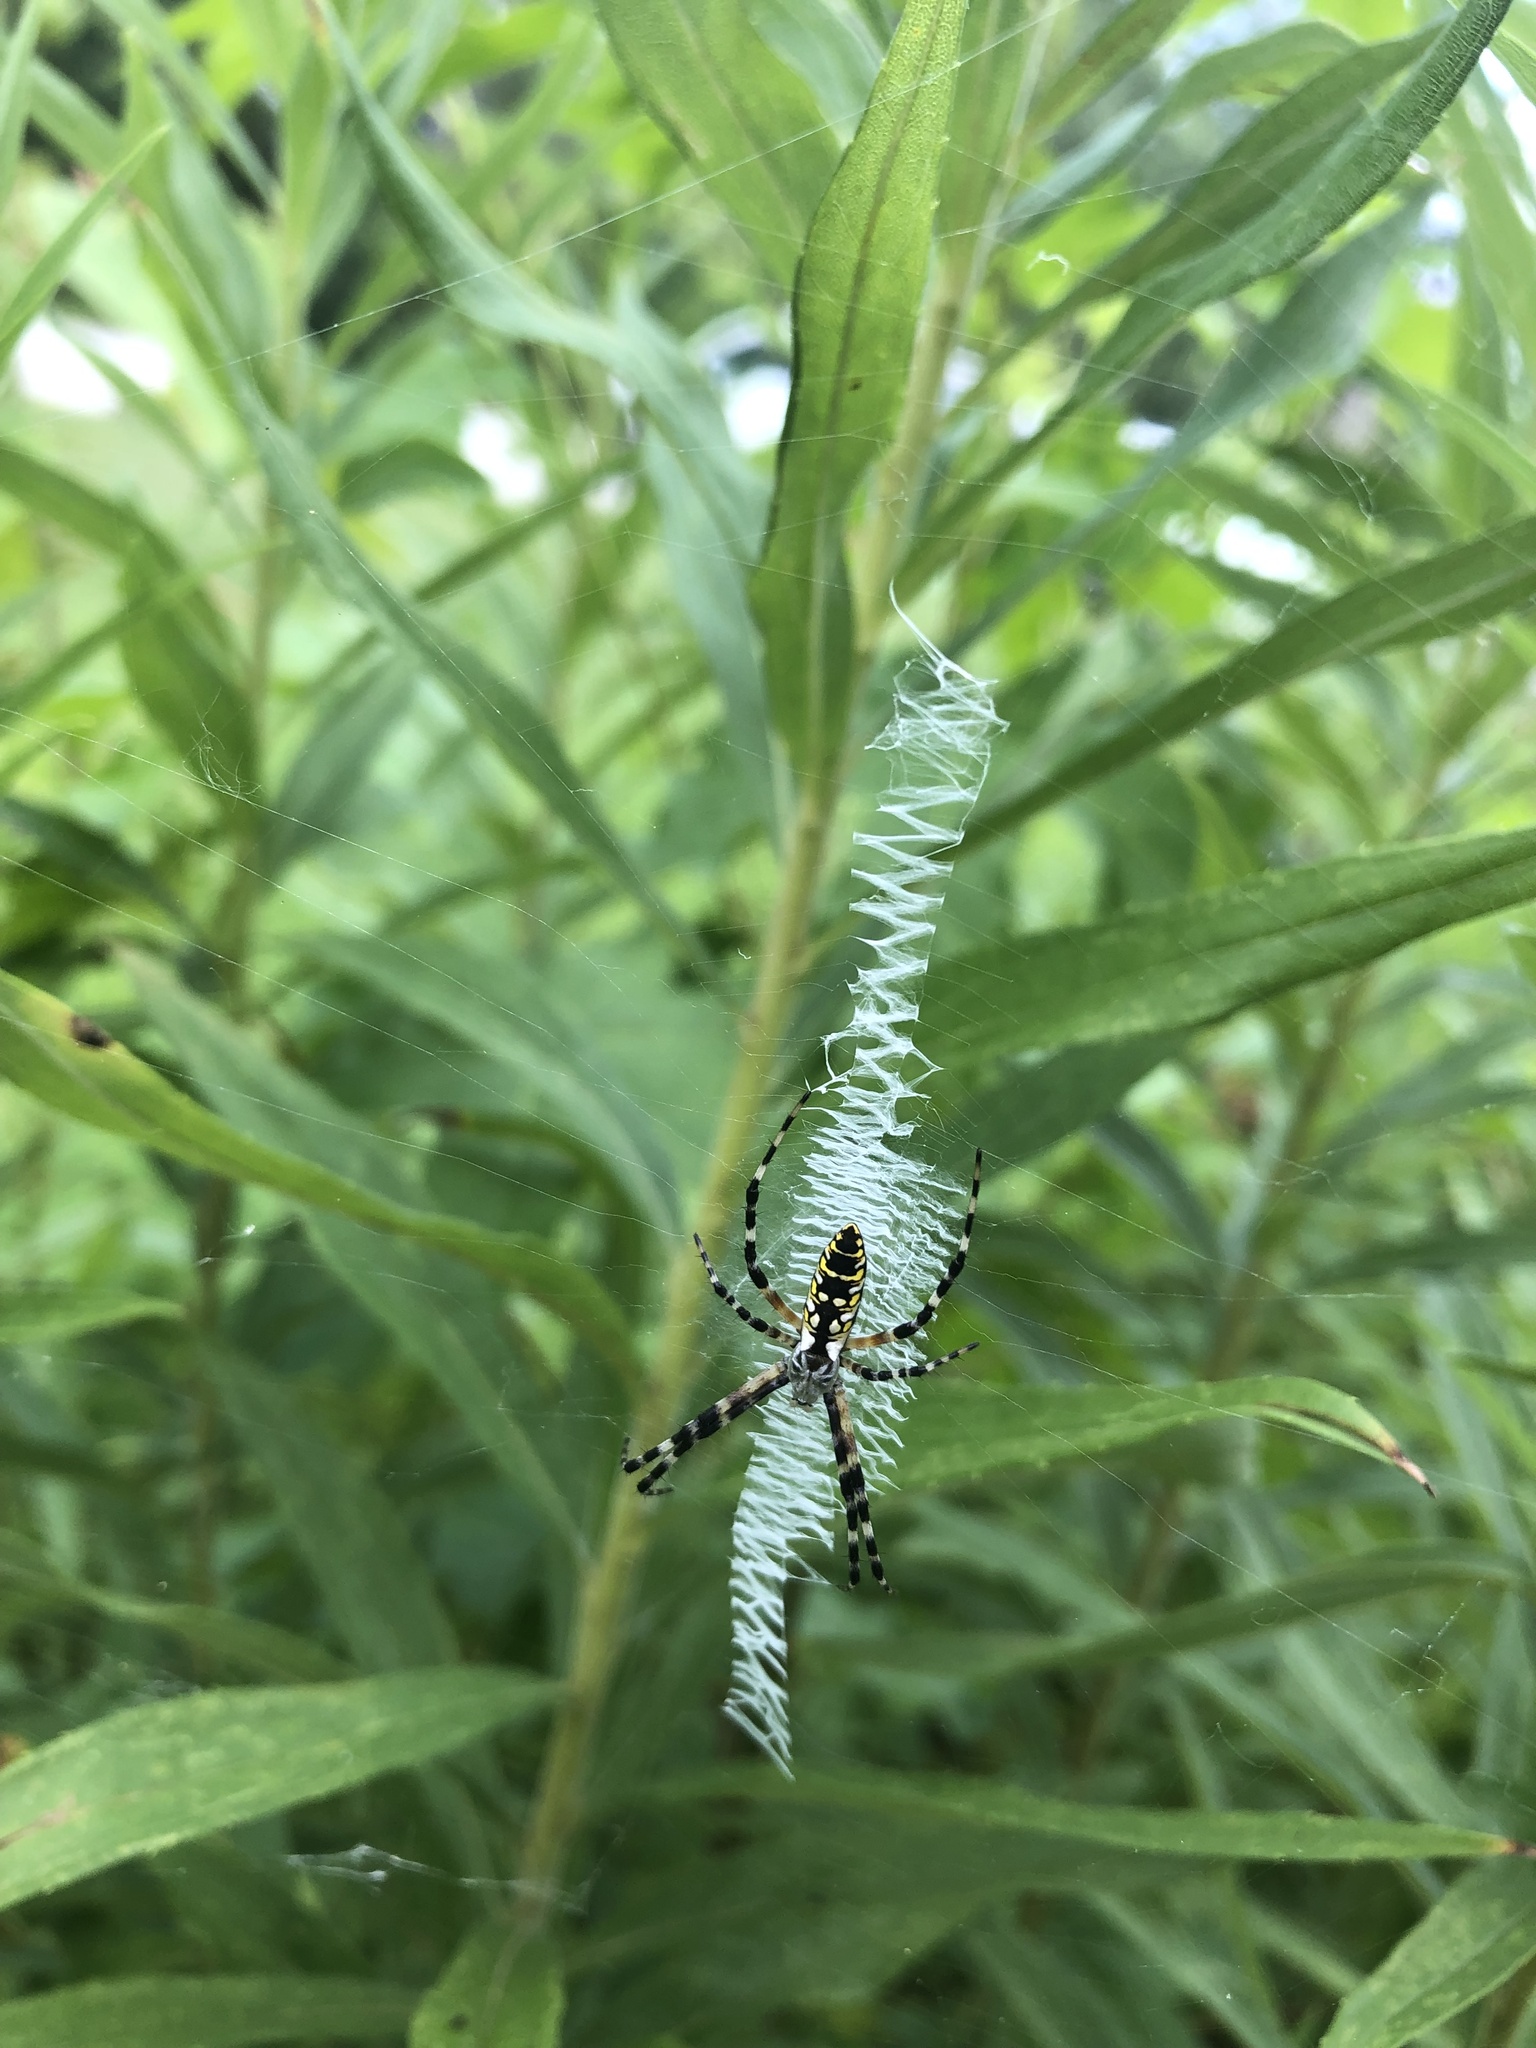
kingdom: Animalia
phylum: Arthropoda
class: Arachnida
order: Araneae
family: Araneidae
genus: Argiope
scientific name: Argiope aurantia
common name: Orb weavers
